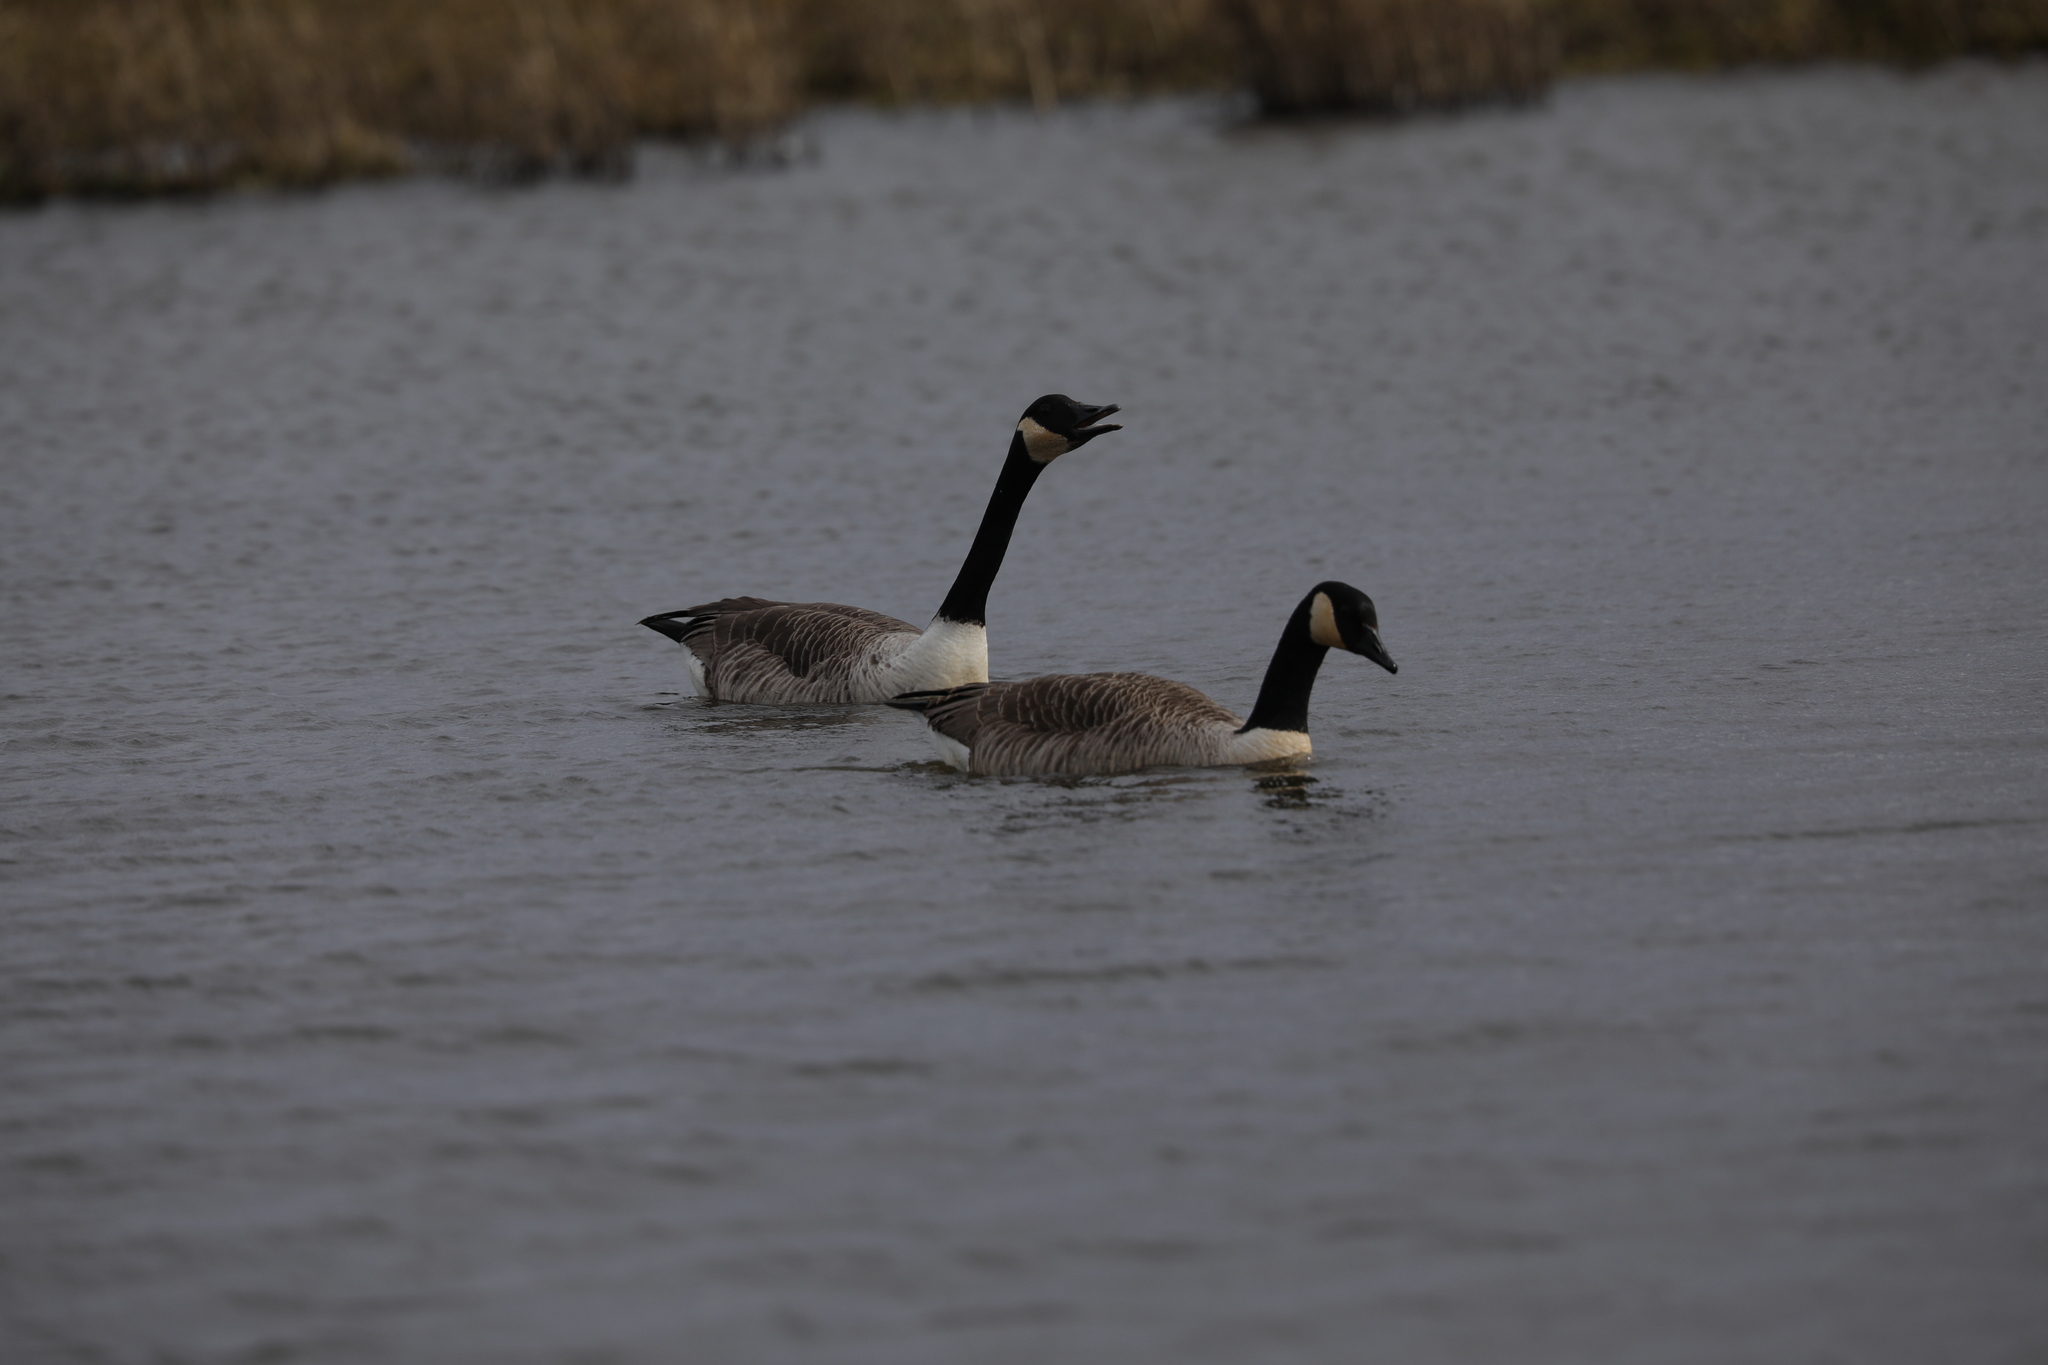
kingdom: Animalia
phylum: Chordata
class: Aves
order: Anseriformes
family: Anatidae
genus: Branta
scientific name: Branta canadensis
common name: Canada goose
